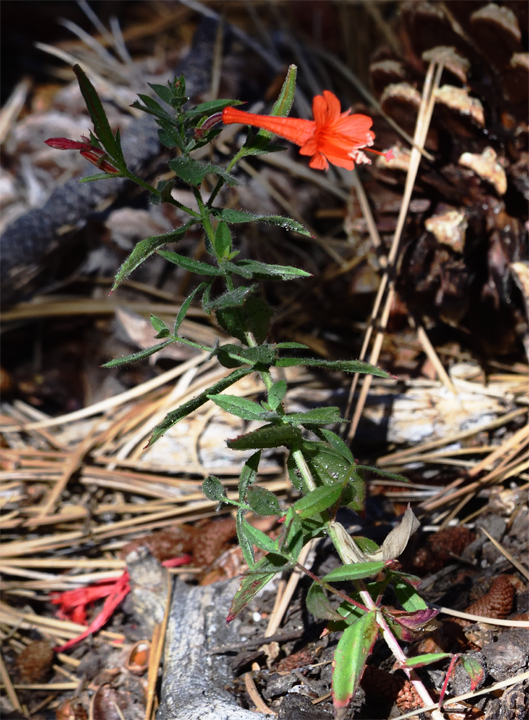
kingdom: Plantae
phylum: Tracheophyta
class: Magnoliopsida
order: Myrtales
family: Onagraceae
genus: Epilobium
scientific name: Epilobium canum
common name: California-fuchsia
